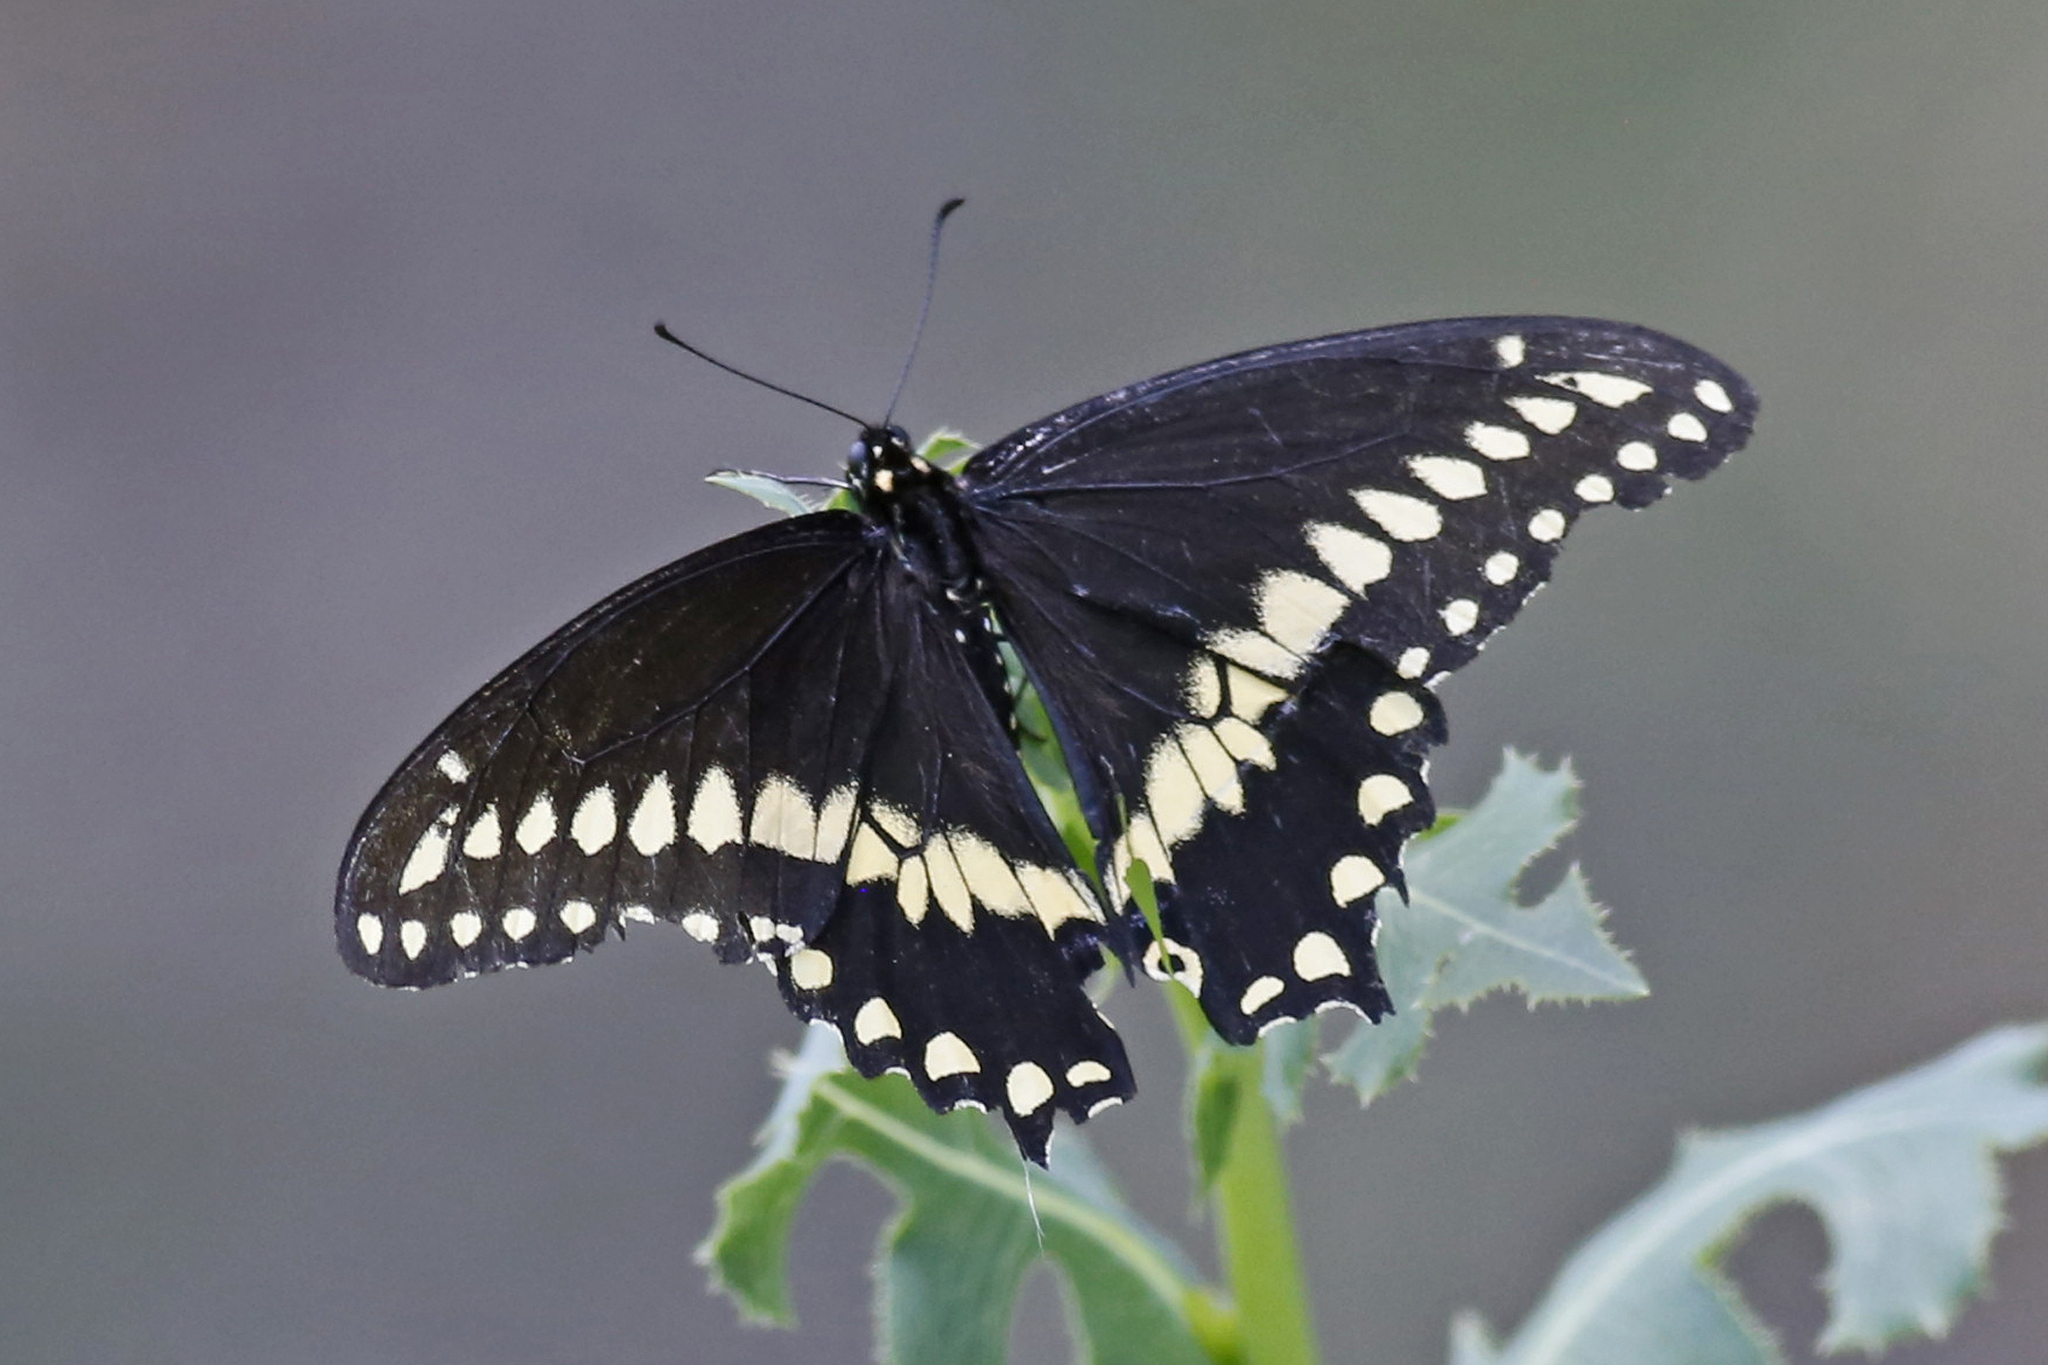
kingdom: Animalia
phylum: Arthropoda
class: Insecta
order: Lepidoptera
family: Papilionidae
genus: Papilio
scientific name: Papilio polyxenes
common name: Black swallowtail
